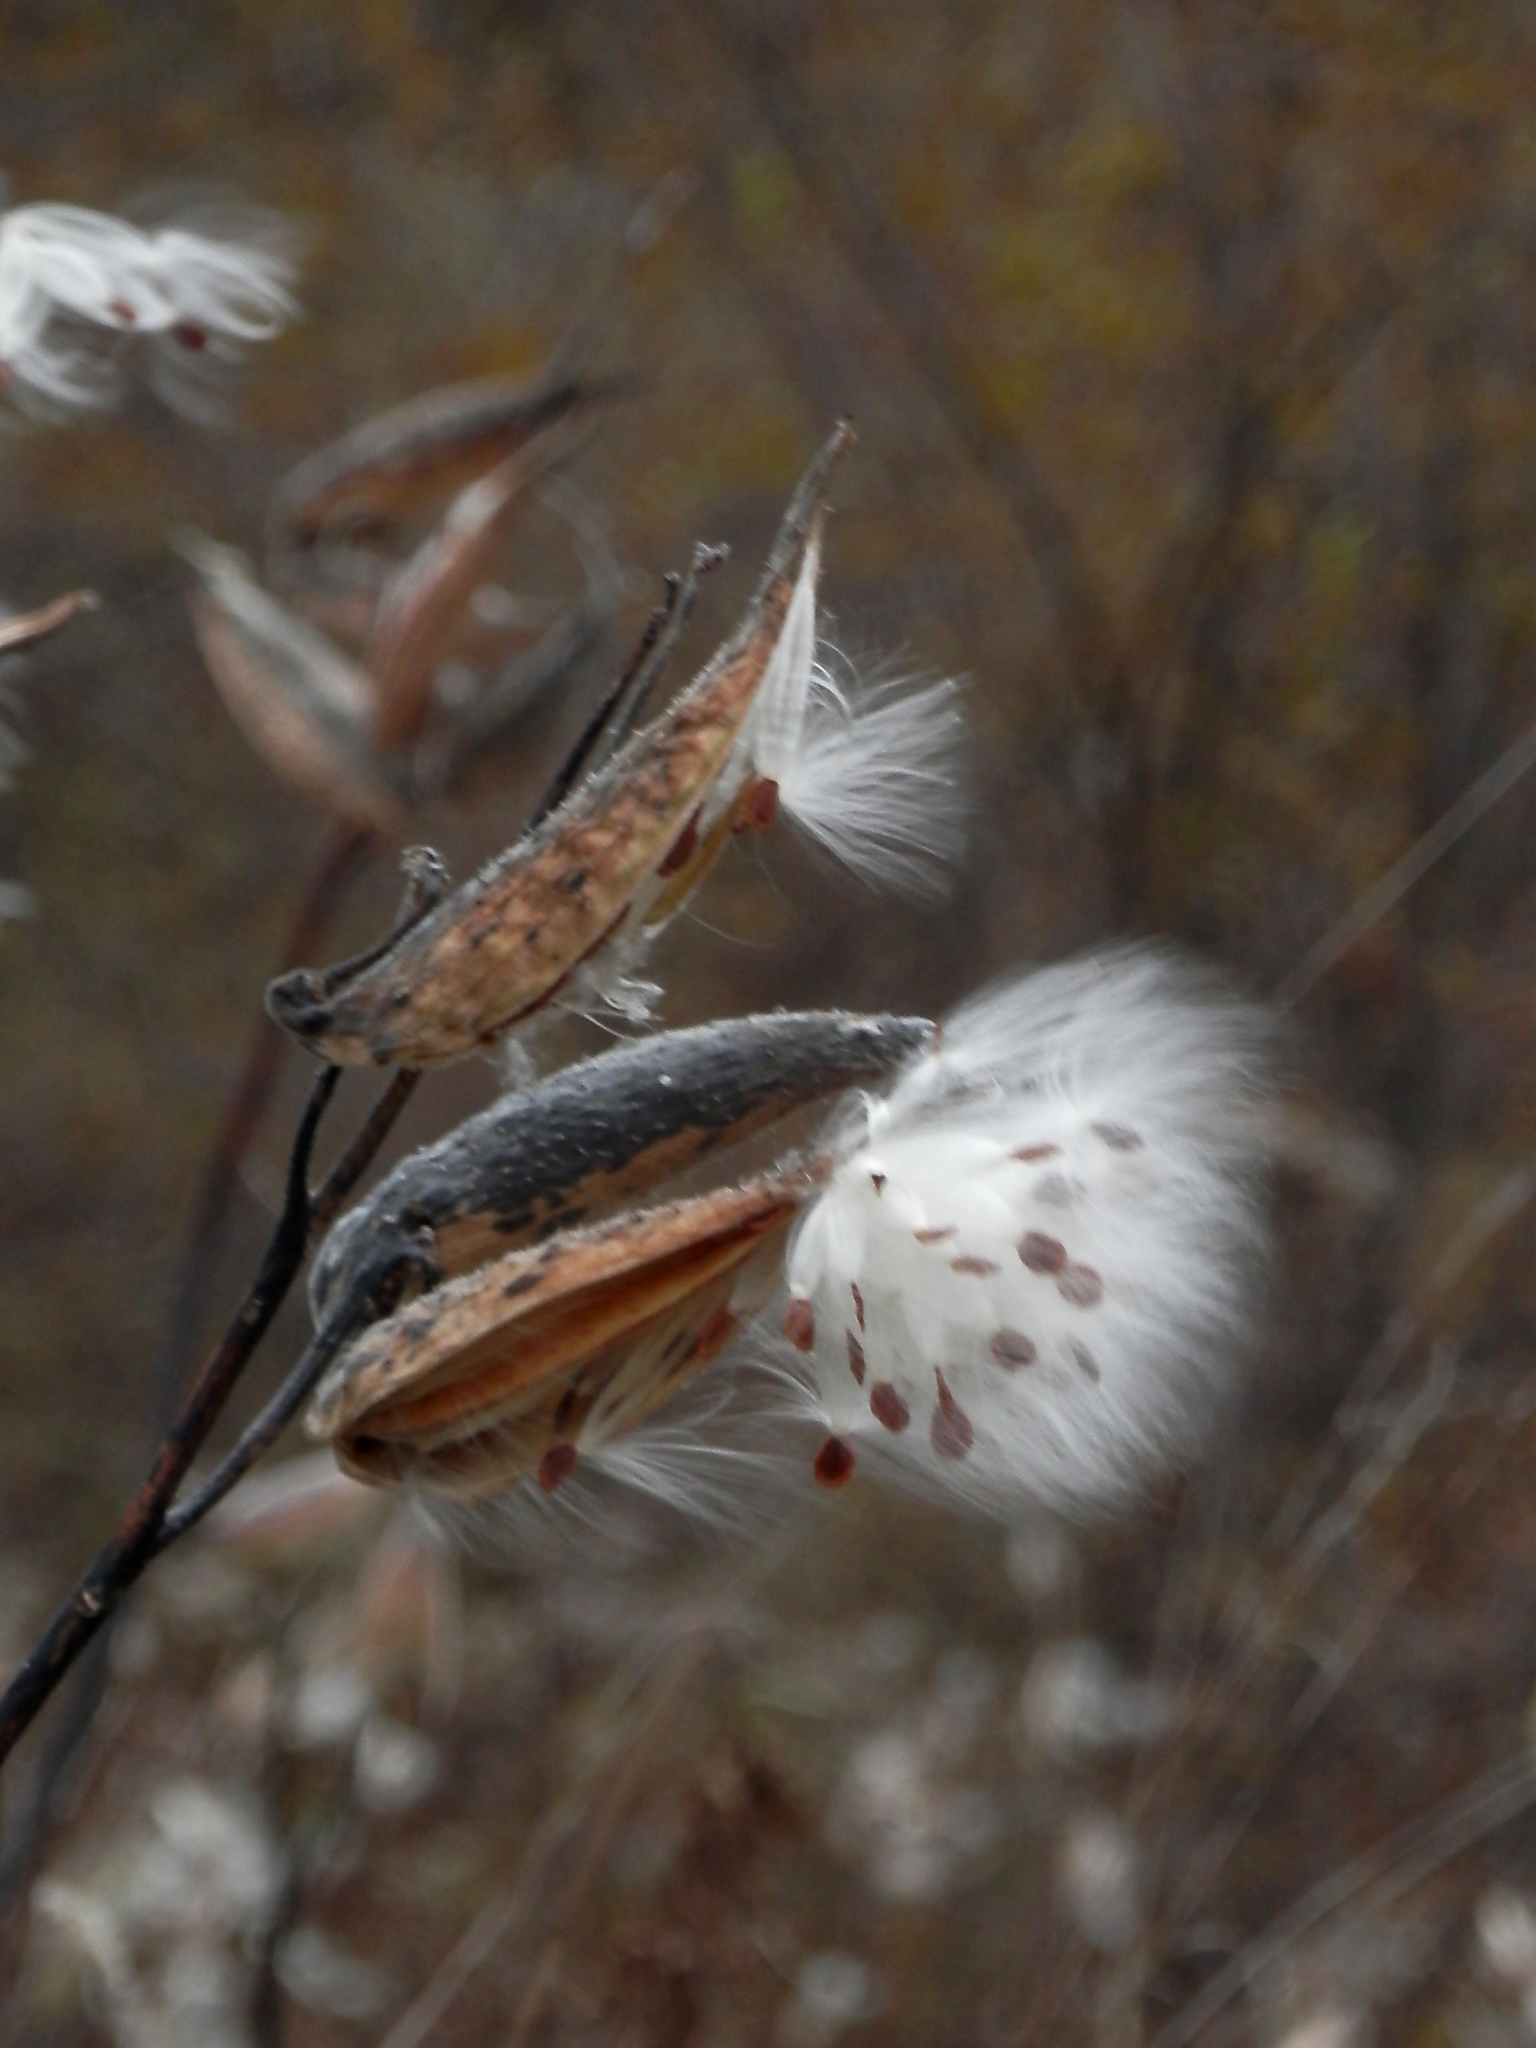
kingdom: Plantae
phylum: Tracheophyta
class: Magnoliopsida
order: Gentianales
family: Apocynaceae
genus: Asclepias
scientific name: Asclepias syriaca
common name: Common milkweed
